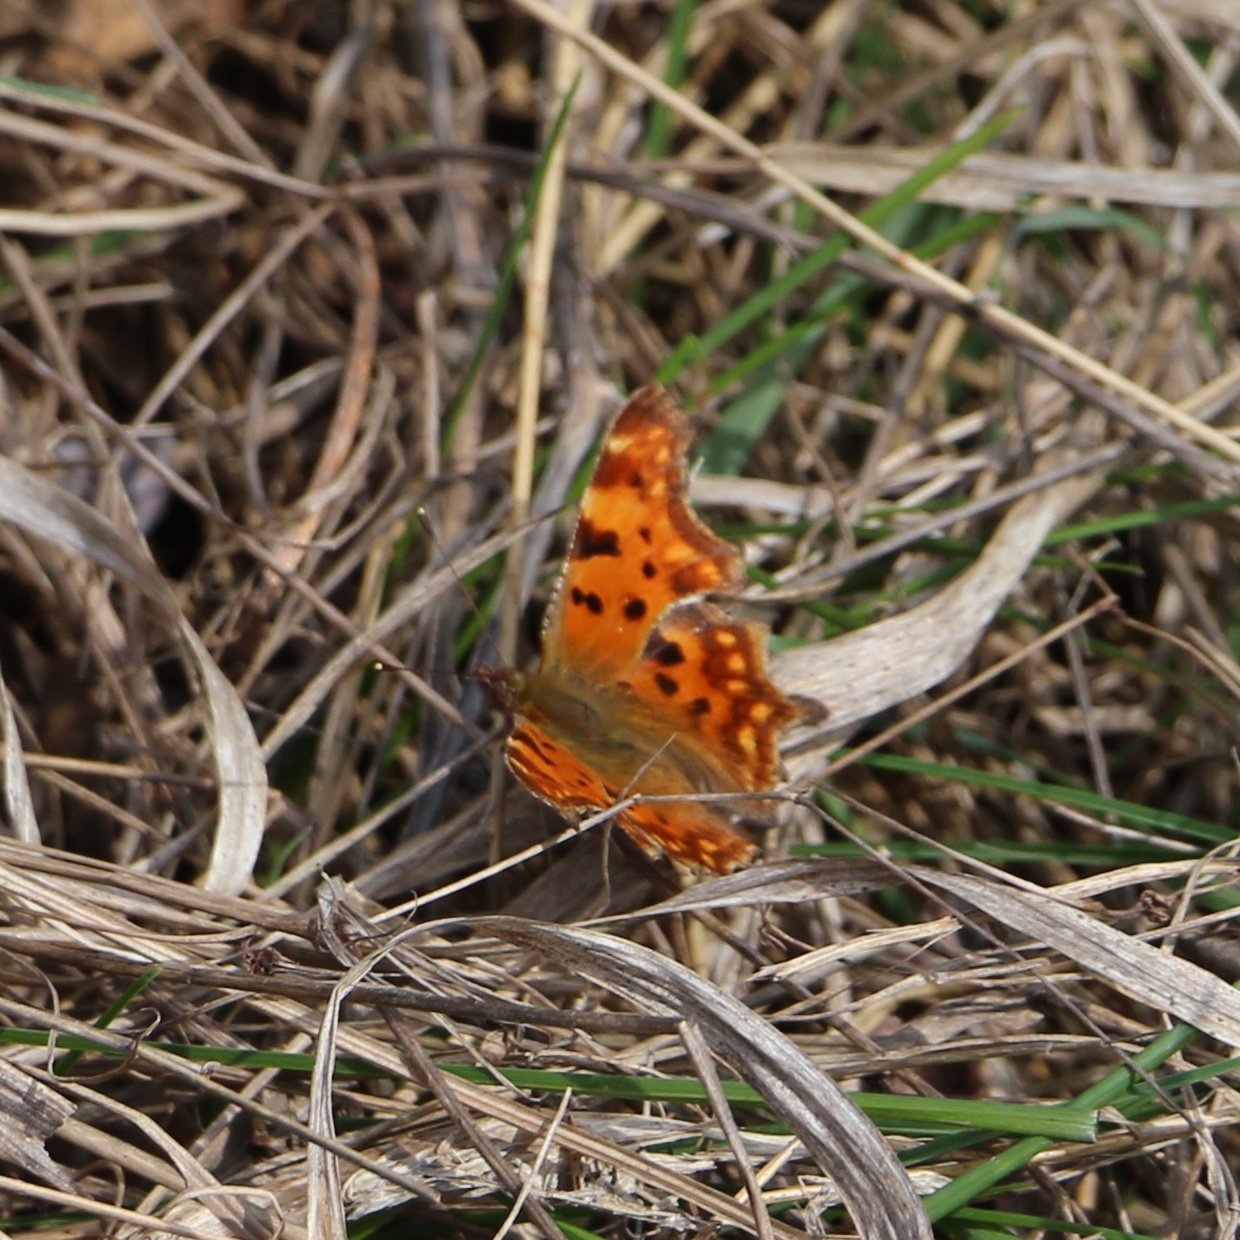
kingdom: Animalia
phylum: Arthropoda
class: Insecta
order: Lepidoptera
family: Nymphalidae
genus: Polygonia
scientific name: Polygonia c-album
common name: Comma
